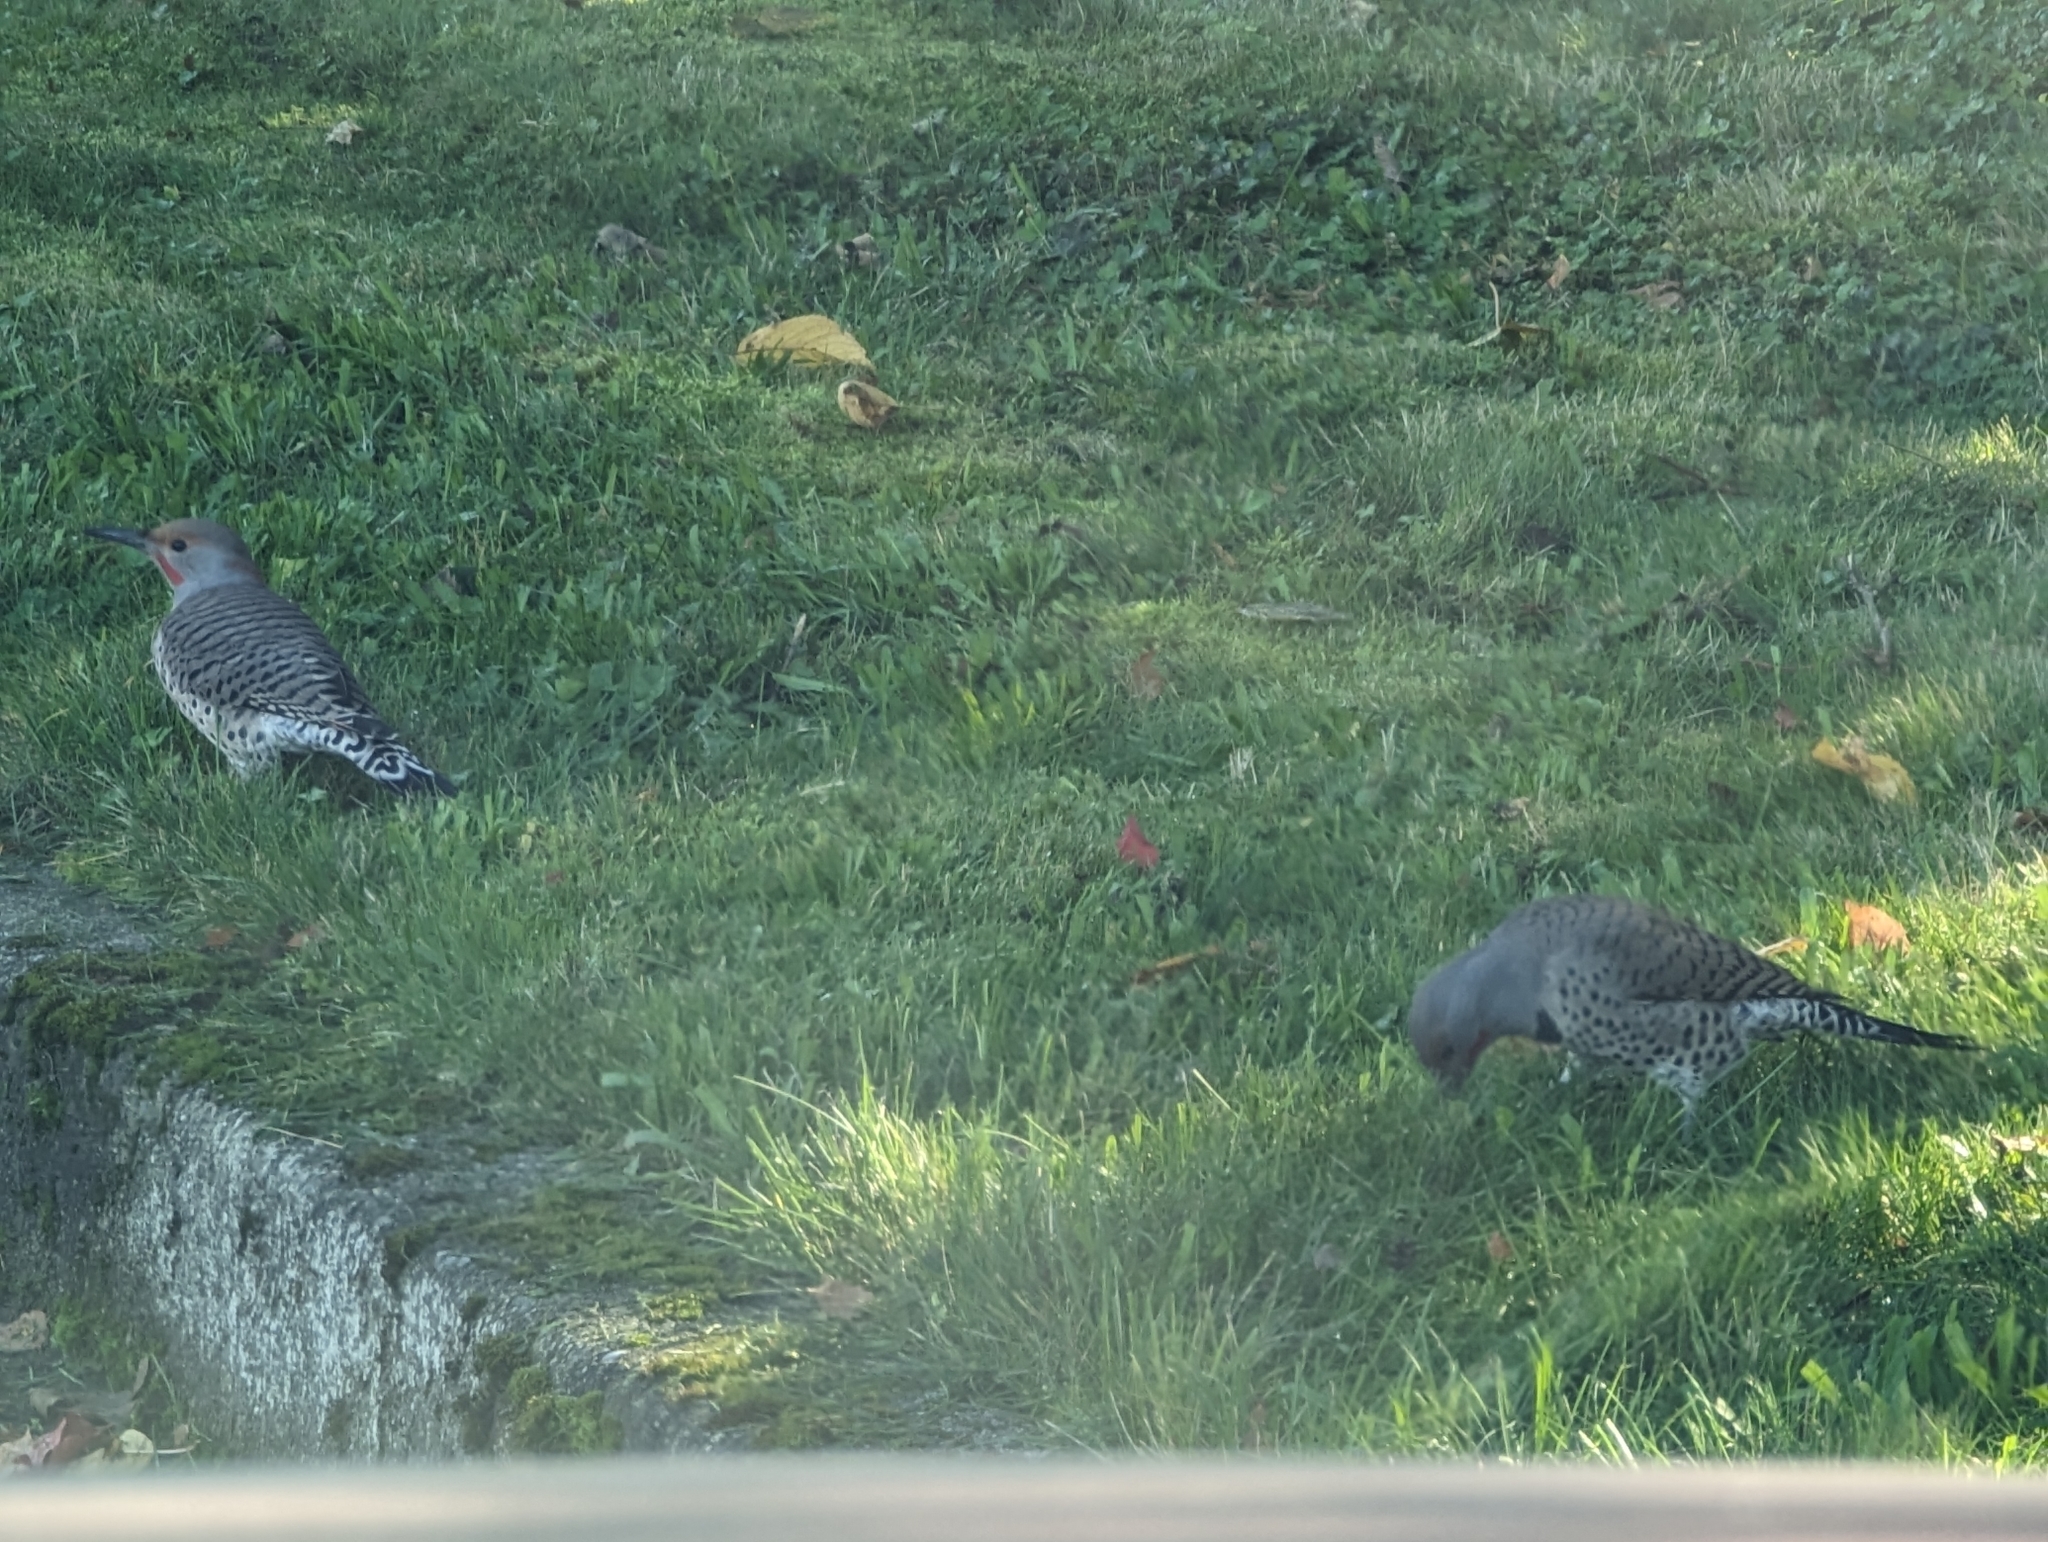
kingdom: Animalia
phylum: Chordata
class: Aves
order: Piciformes
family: Picidae
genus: Colaptes
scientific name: Colaptes auratus
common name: Northern flicker
